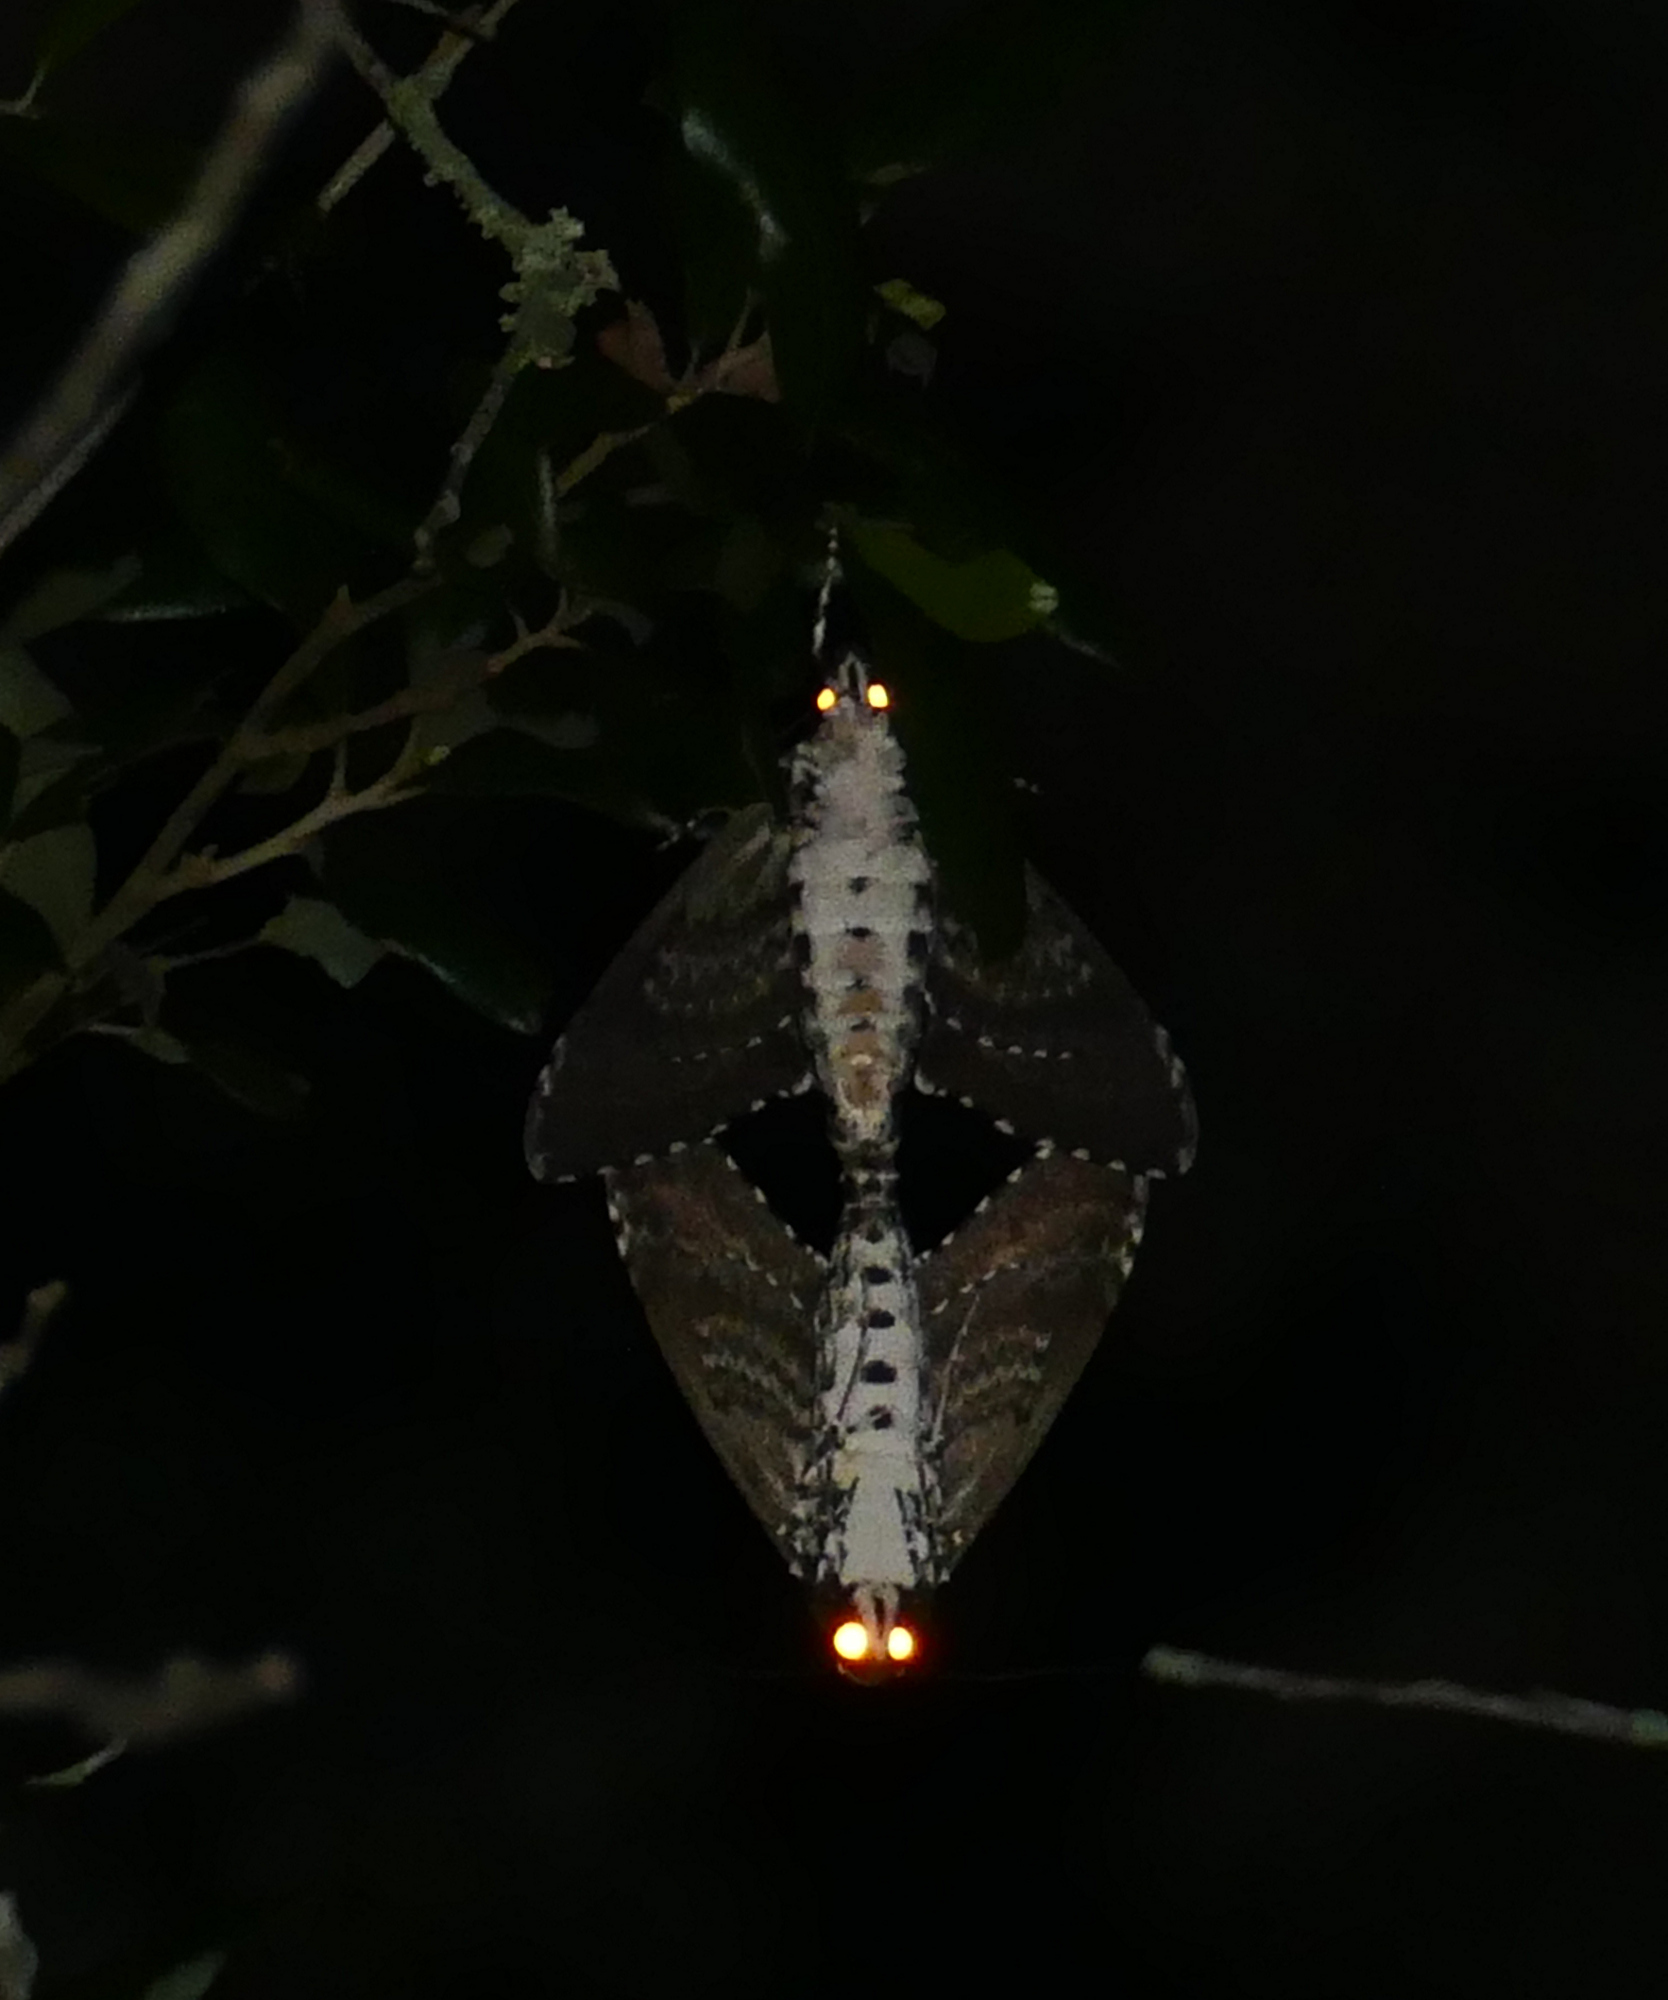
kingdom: Animalia
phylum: Arthropoda
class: Insecta
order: Lepidoptera
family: Sphingidae
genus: Manduca
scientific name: Manduca rustica
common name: Rustic sphinx
